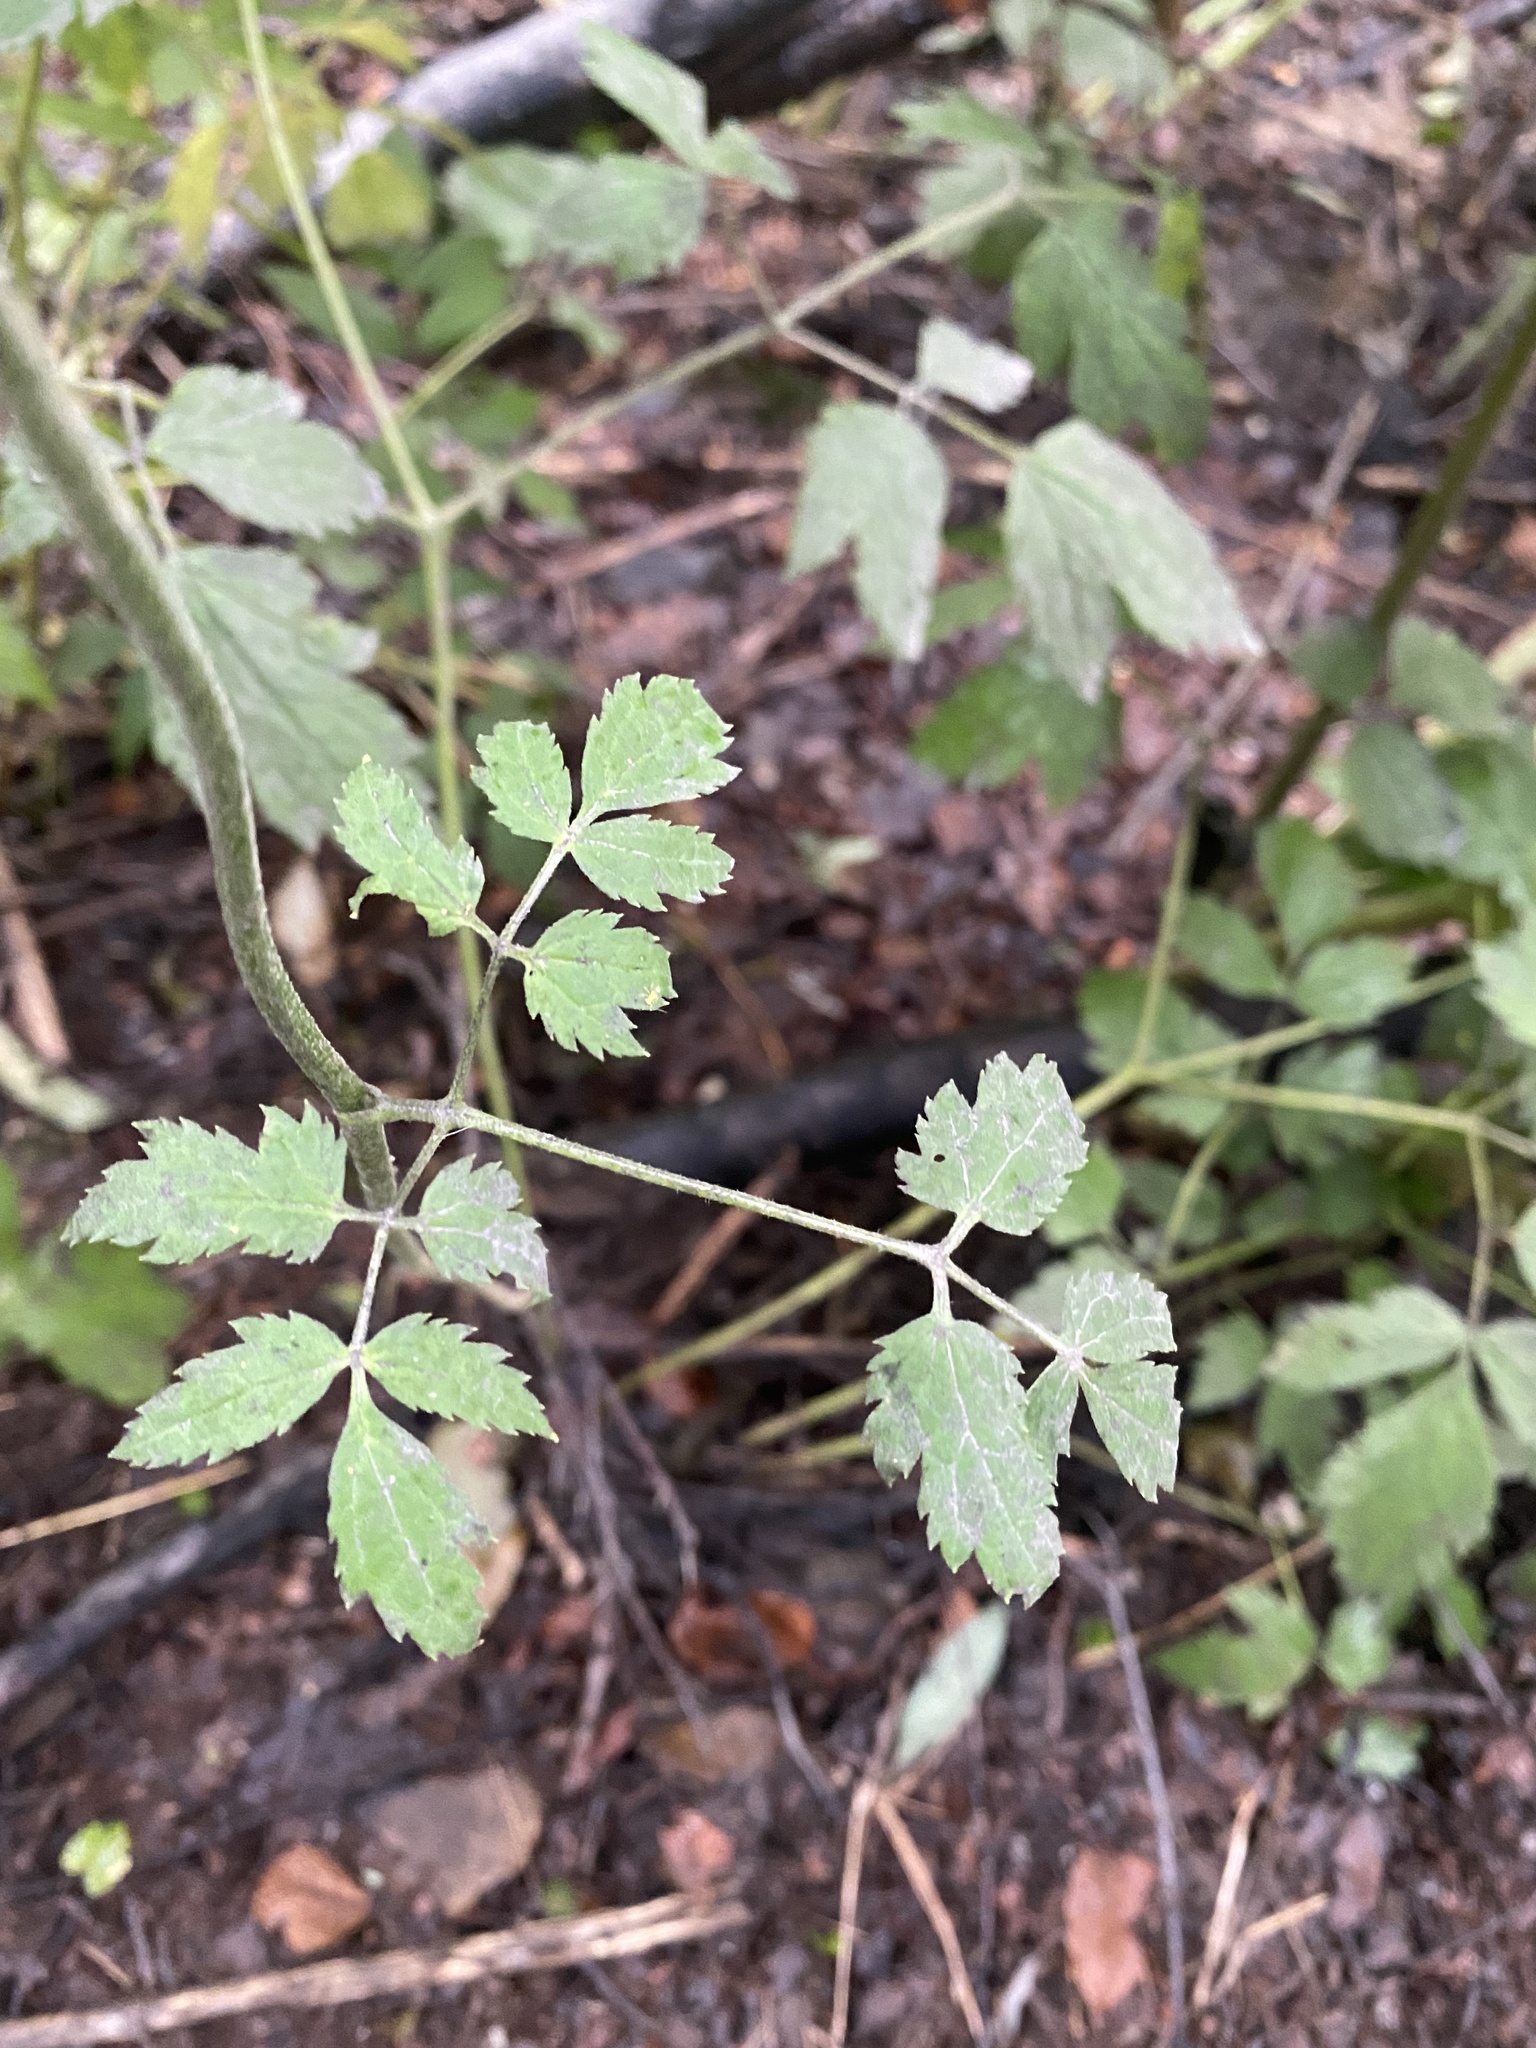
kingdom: Plantae
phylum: Tracheophyta
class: Magnoliopsida
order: Ranunculales
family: Ranunculaceae
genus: Actaea
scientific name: Actaea simplex
